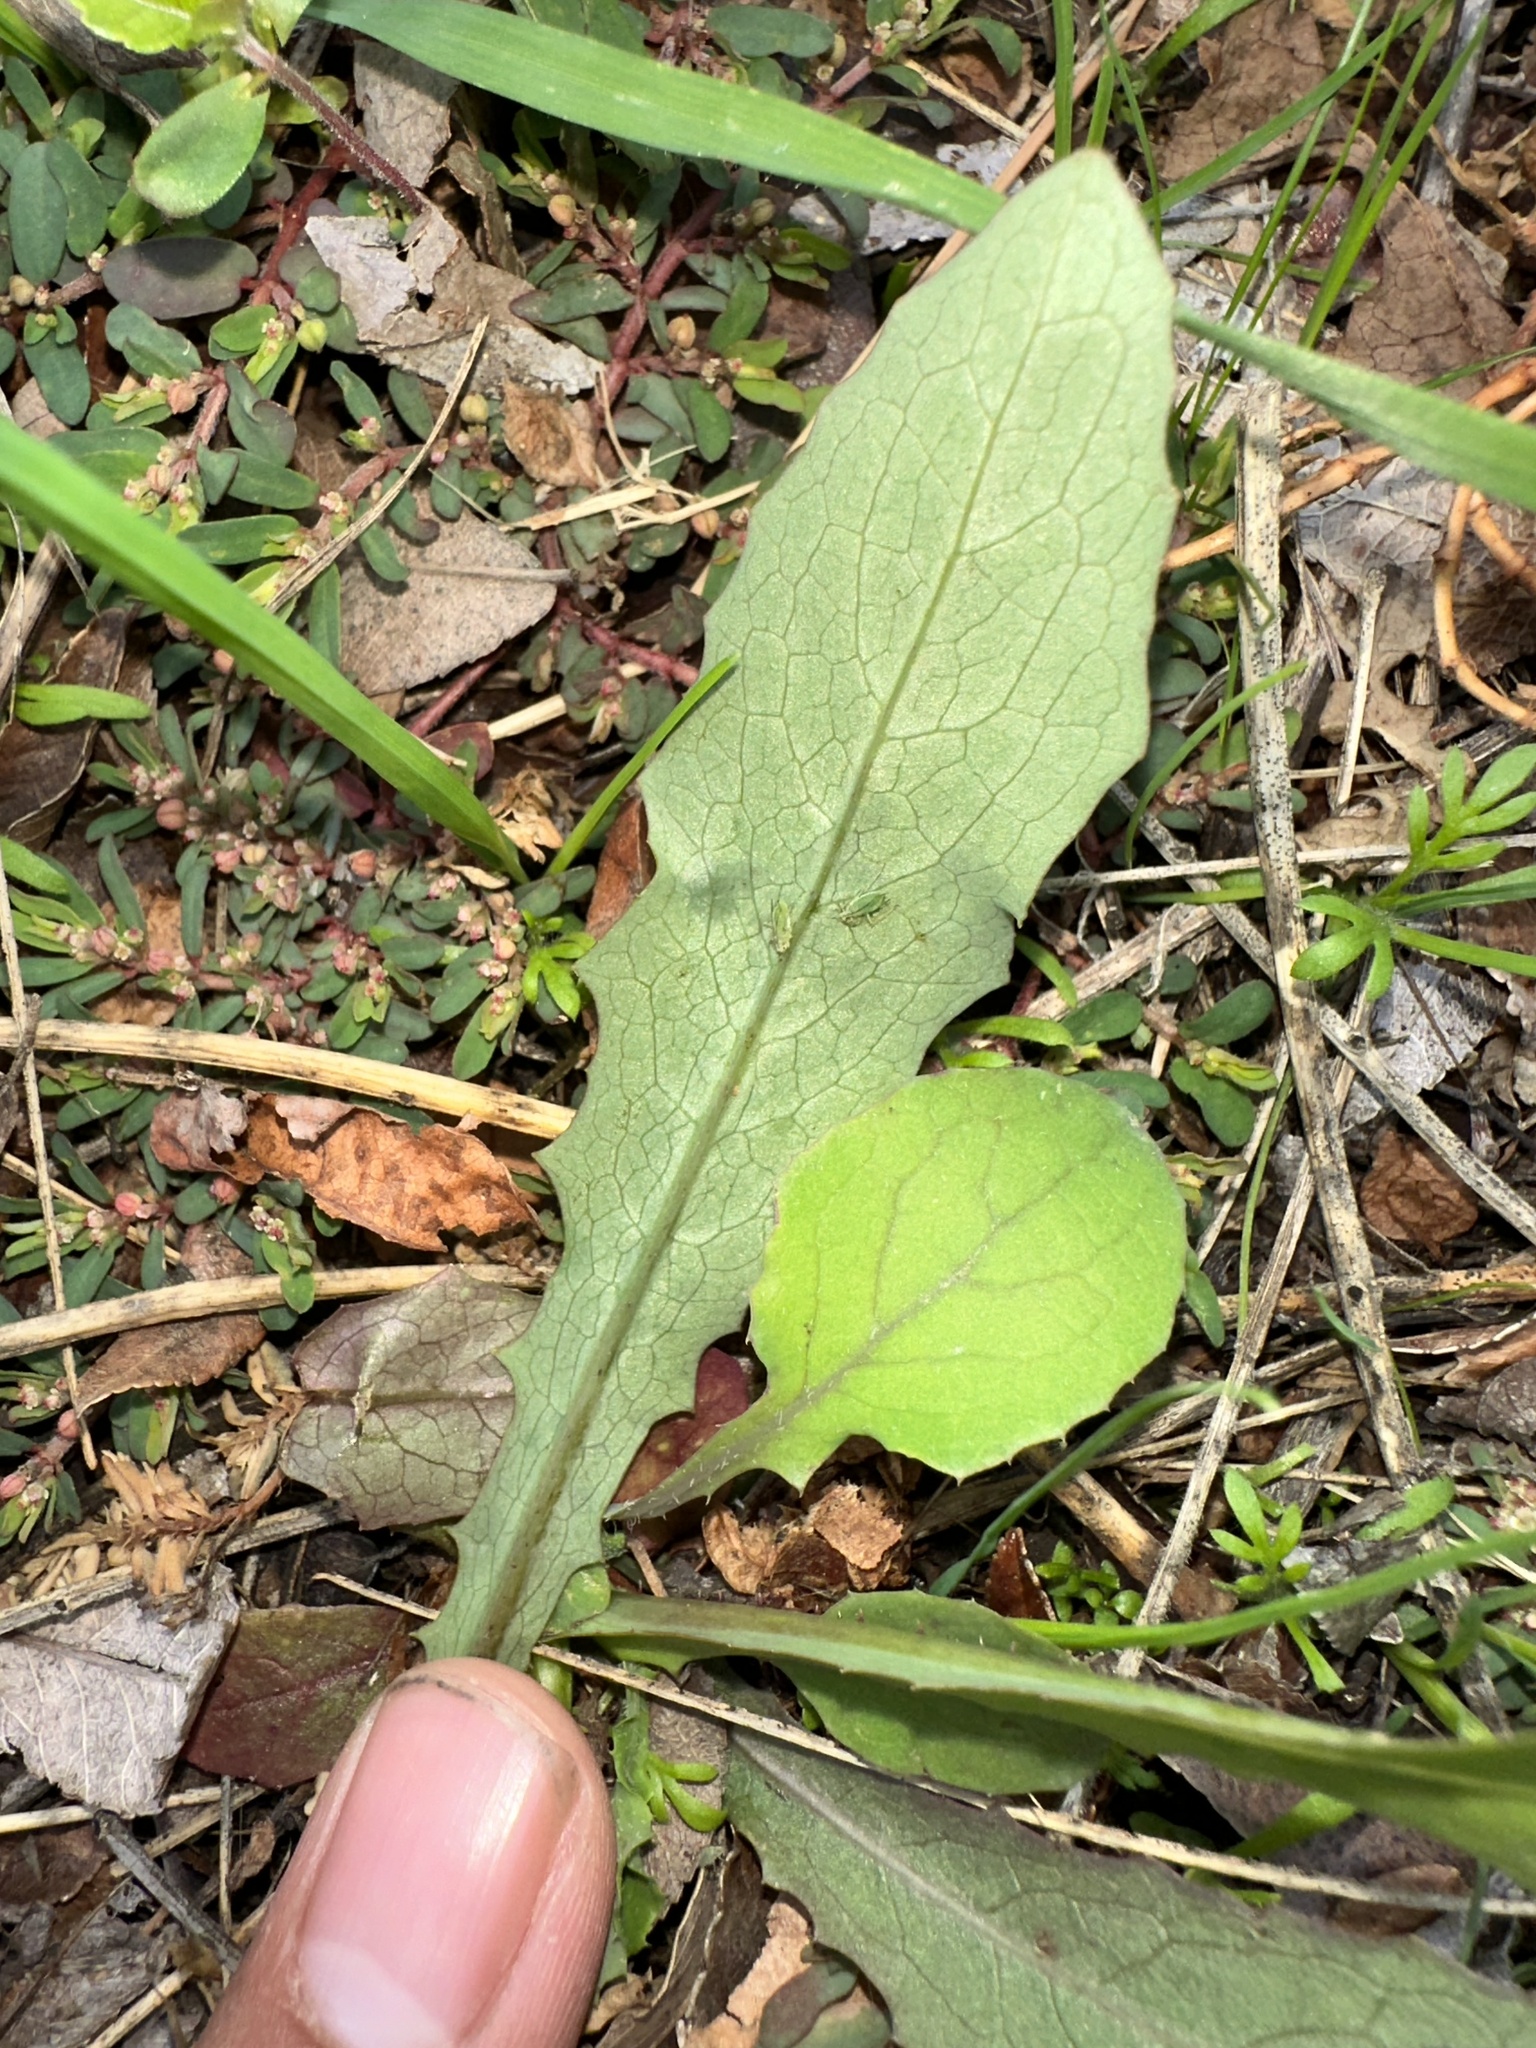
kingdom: Plantae
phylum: Tracheophyta
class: Magnoliopsida
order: Asterales
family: Asteraceae
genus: Lactuca
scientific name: Lactuca serriola
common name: Prickly lettuce
